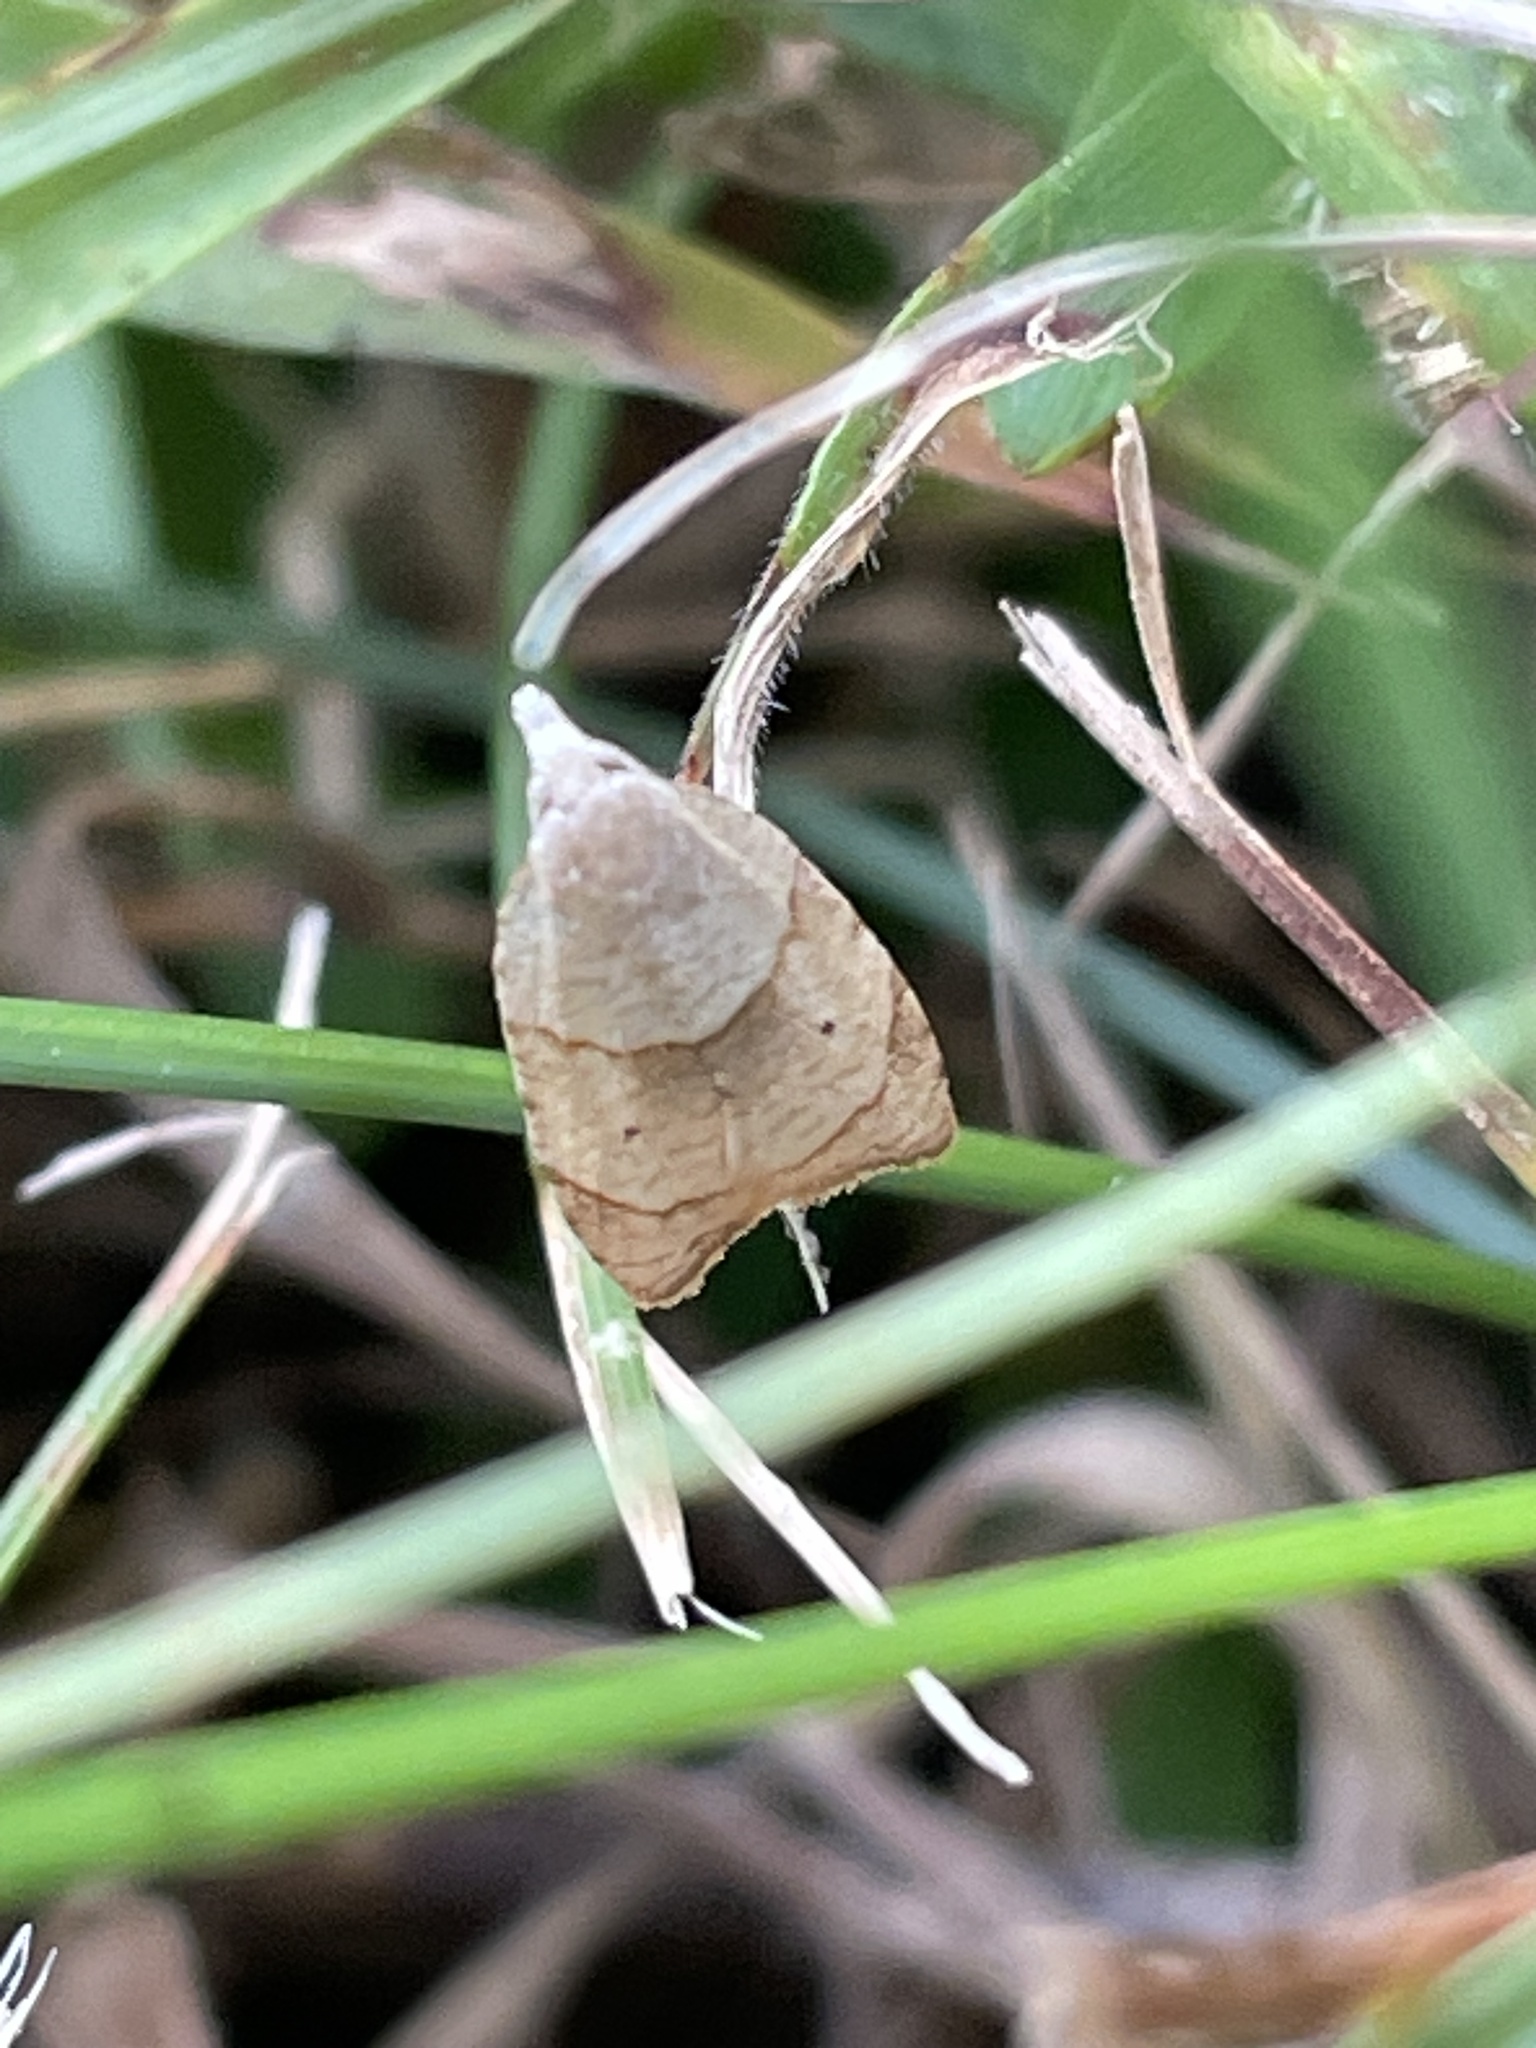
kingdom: Animalia
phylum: Arthropoda
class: Insecta
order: Lepidoptera
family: Tortricidae
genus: Coelostathma
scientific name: Coelostathma discopunctana
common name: Batman moth
